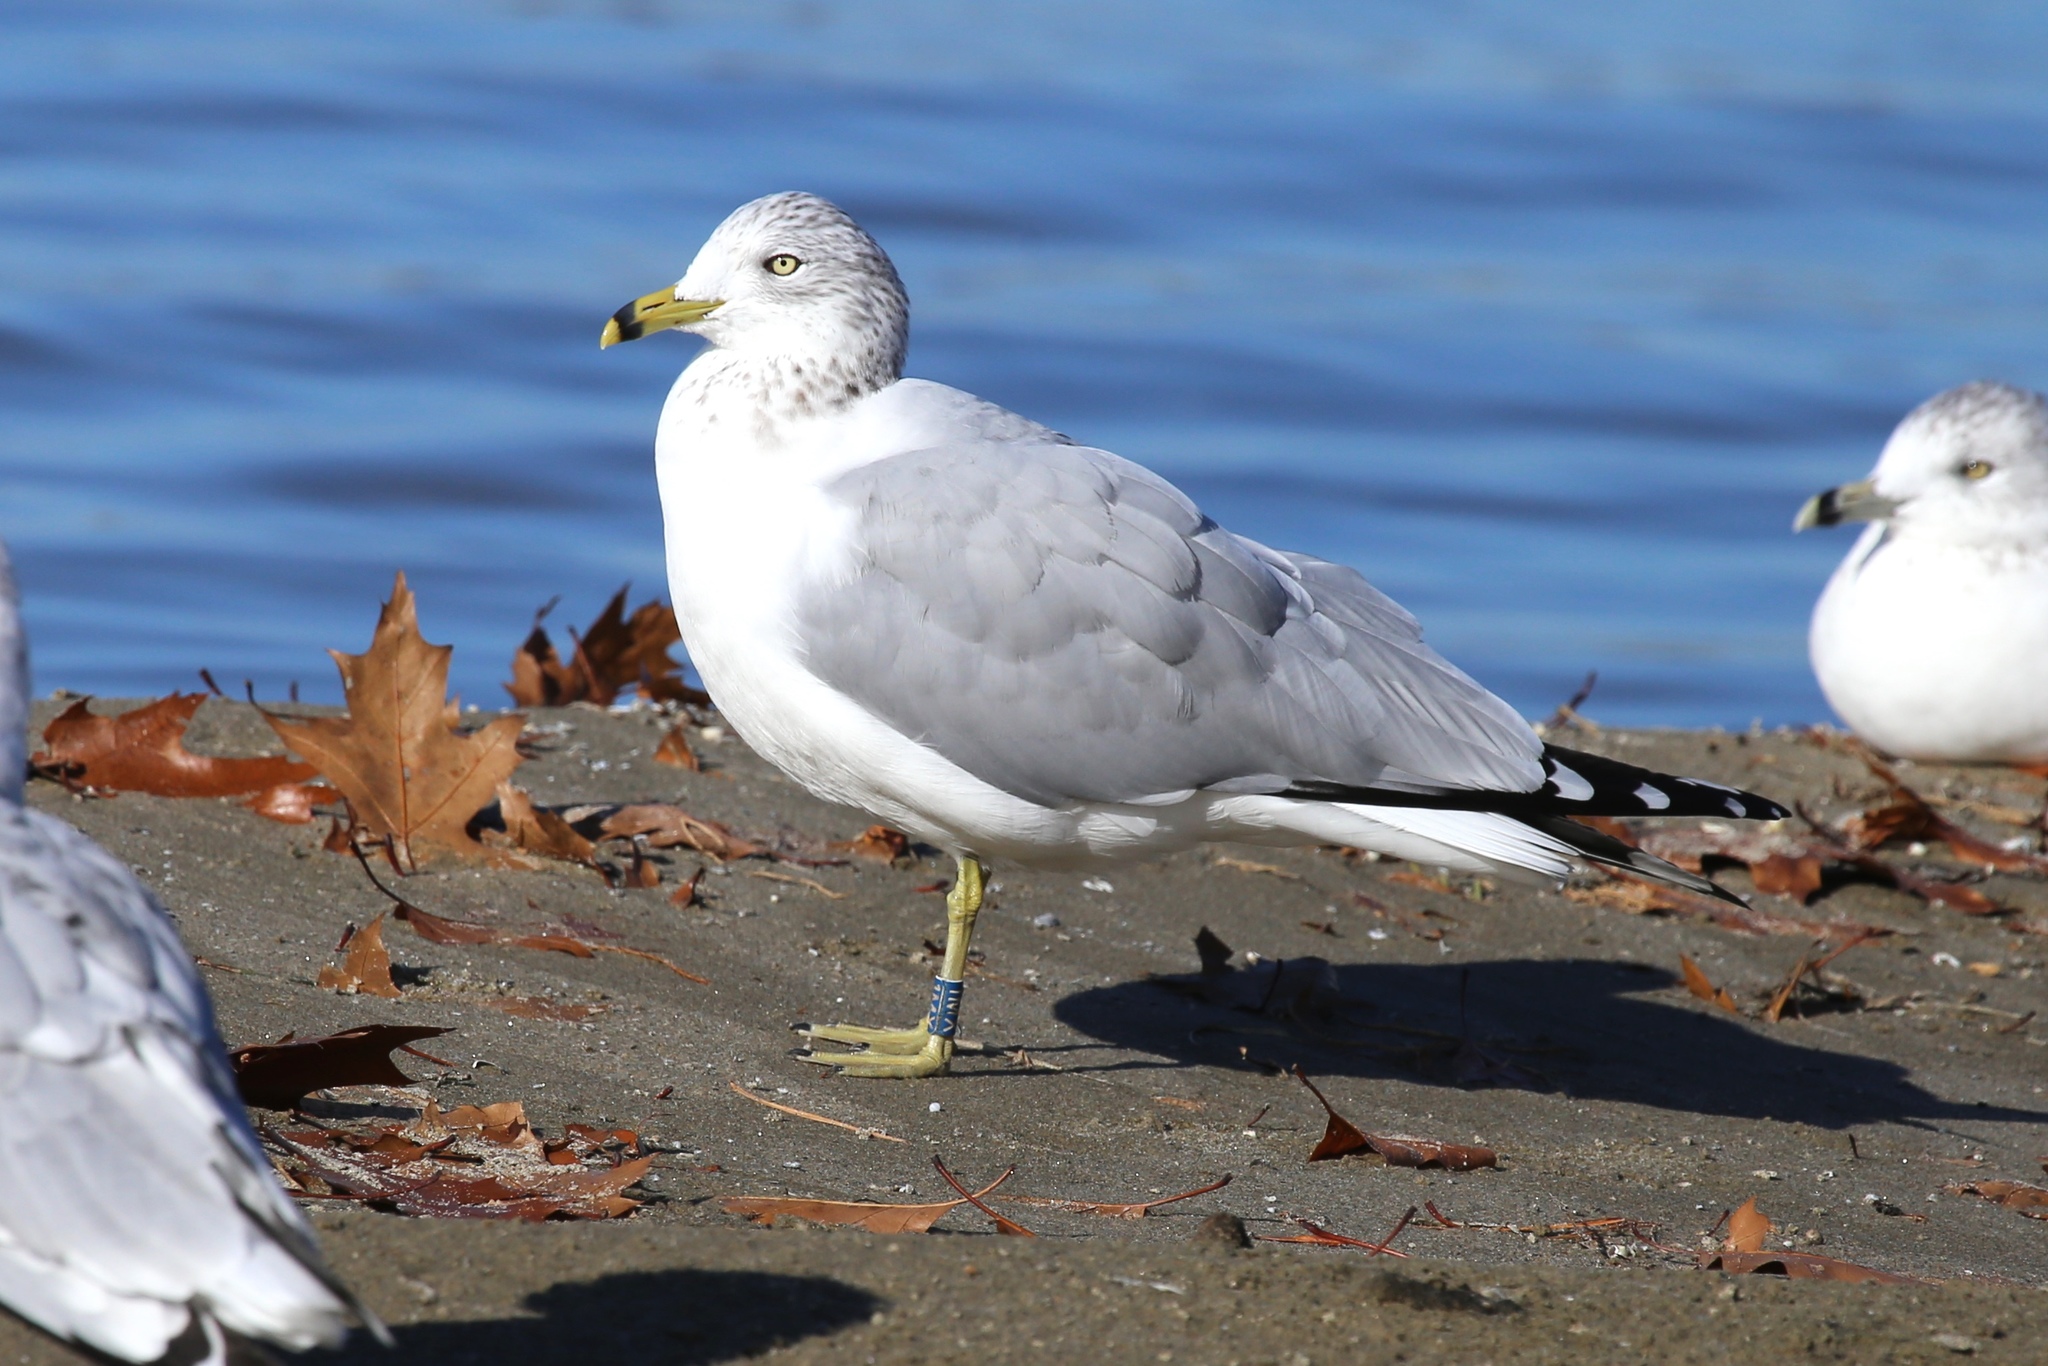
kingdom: Animalia
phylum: Chordata
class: Aves
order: Charadriiformes
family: Laridae
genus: Larus
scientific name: Larus delawarensis
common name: Ring-billed gull
